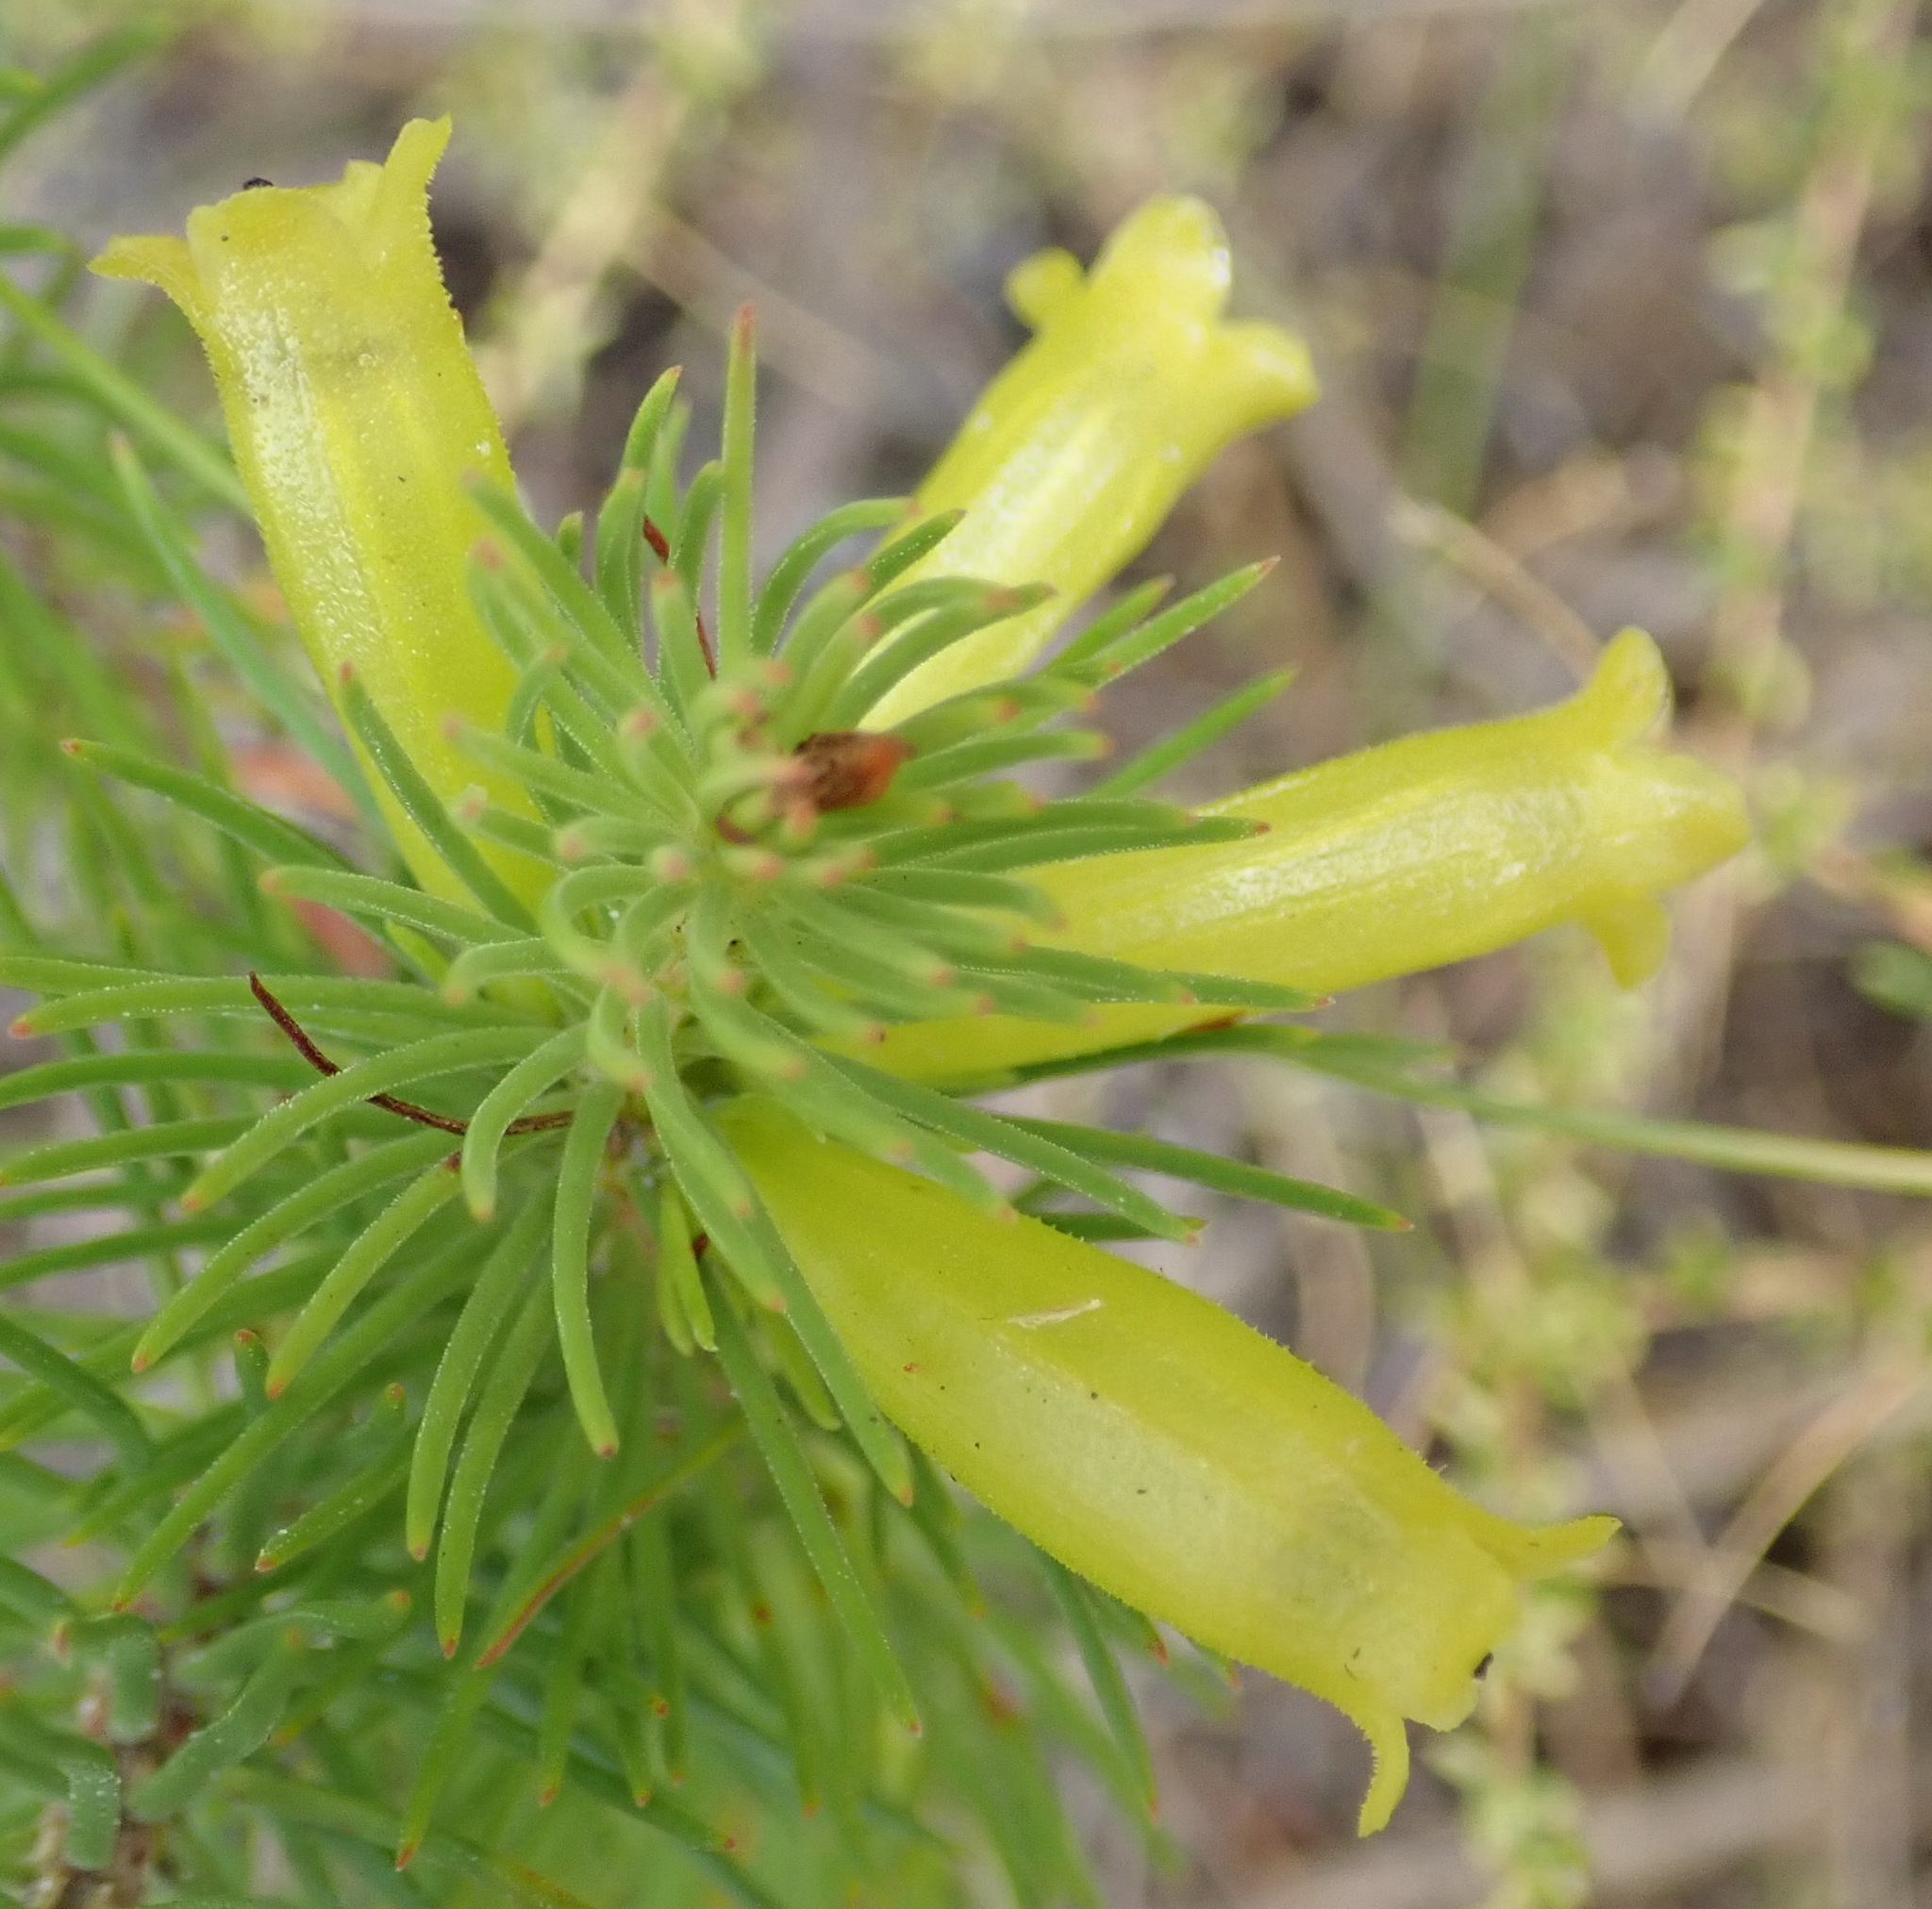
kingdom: Plantae
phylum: Tracheophyta
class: Magnoliopsida
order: Ericales
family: Ericaceae
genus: Erica
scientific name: Erica viscaria
